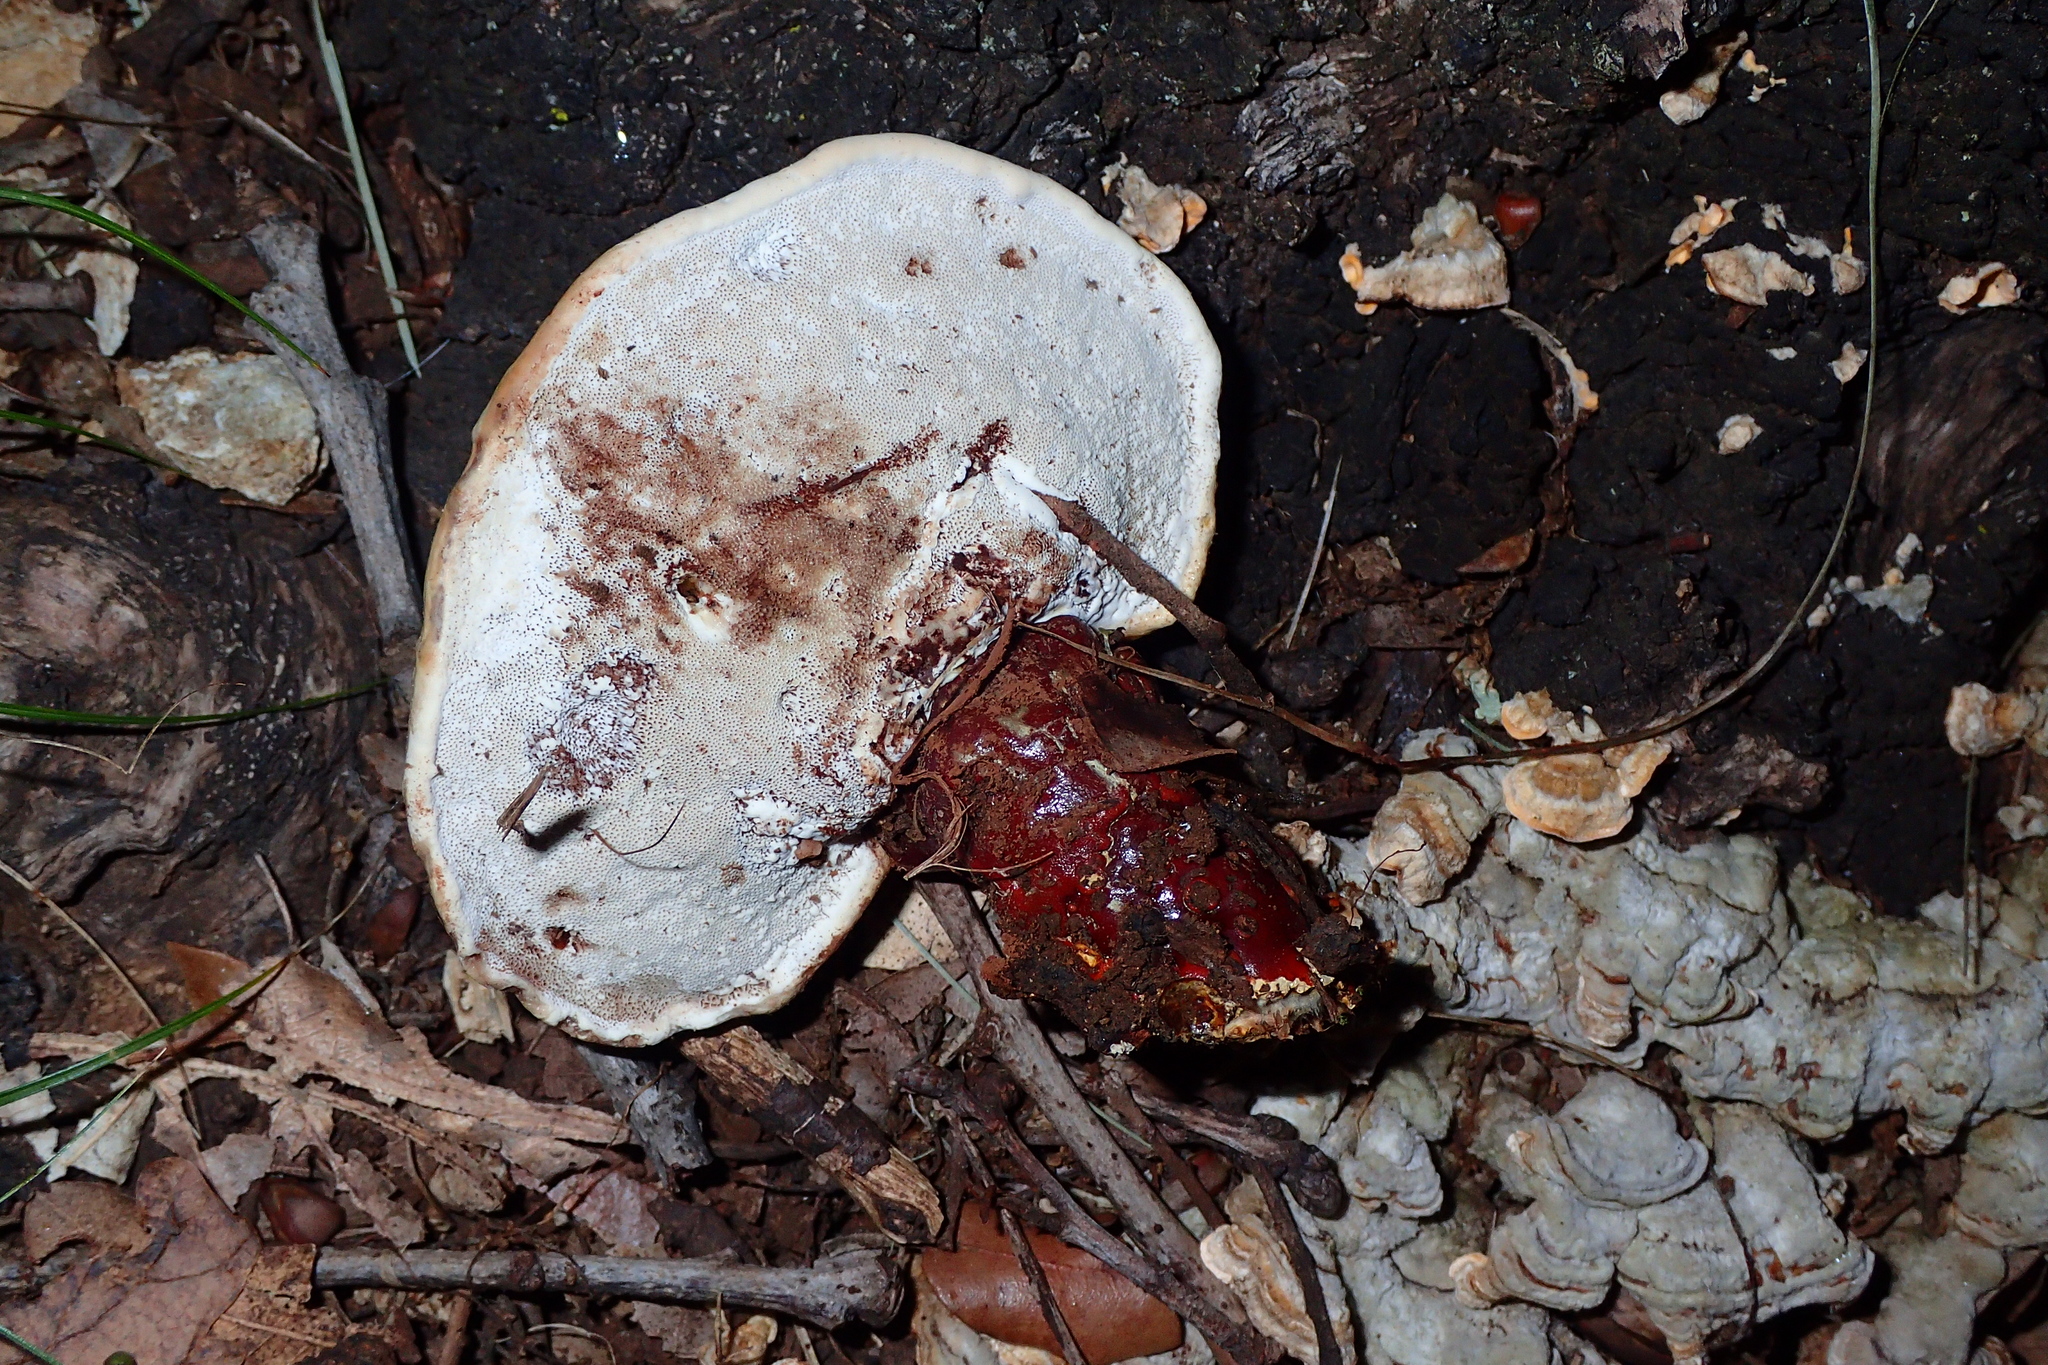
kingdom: Fungi
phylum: Basidiomycota
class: Agaricomycetes
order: Polyporales
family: Polyporaceae
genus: Ganoderma
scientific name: Ganoderma lucidum
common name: Lacquered bracket
